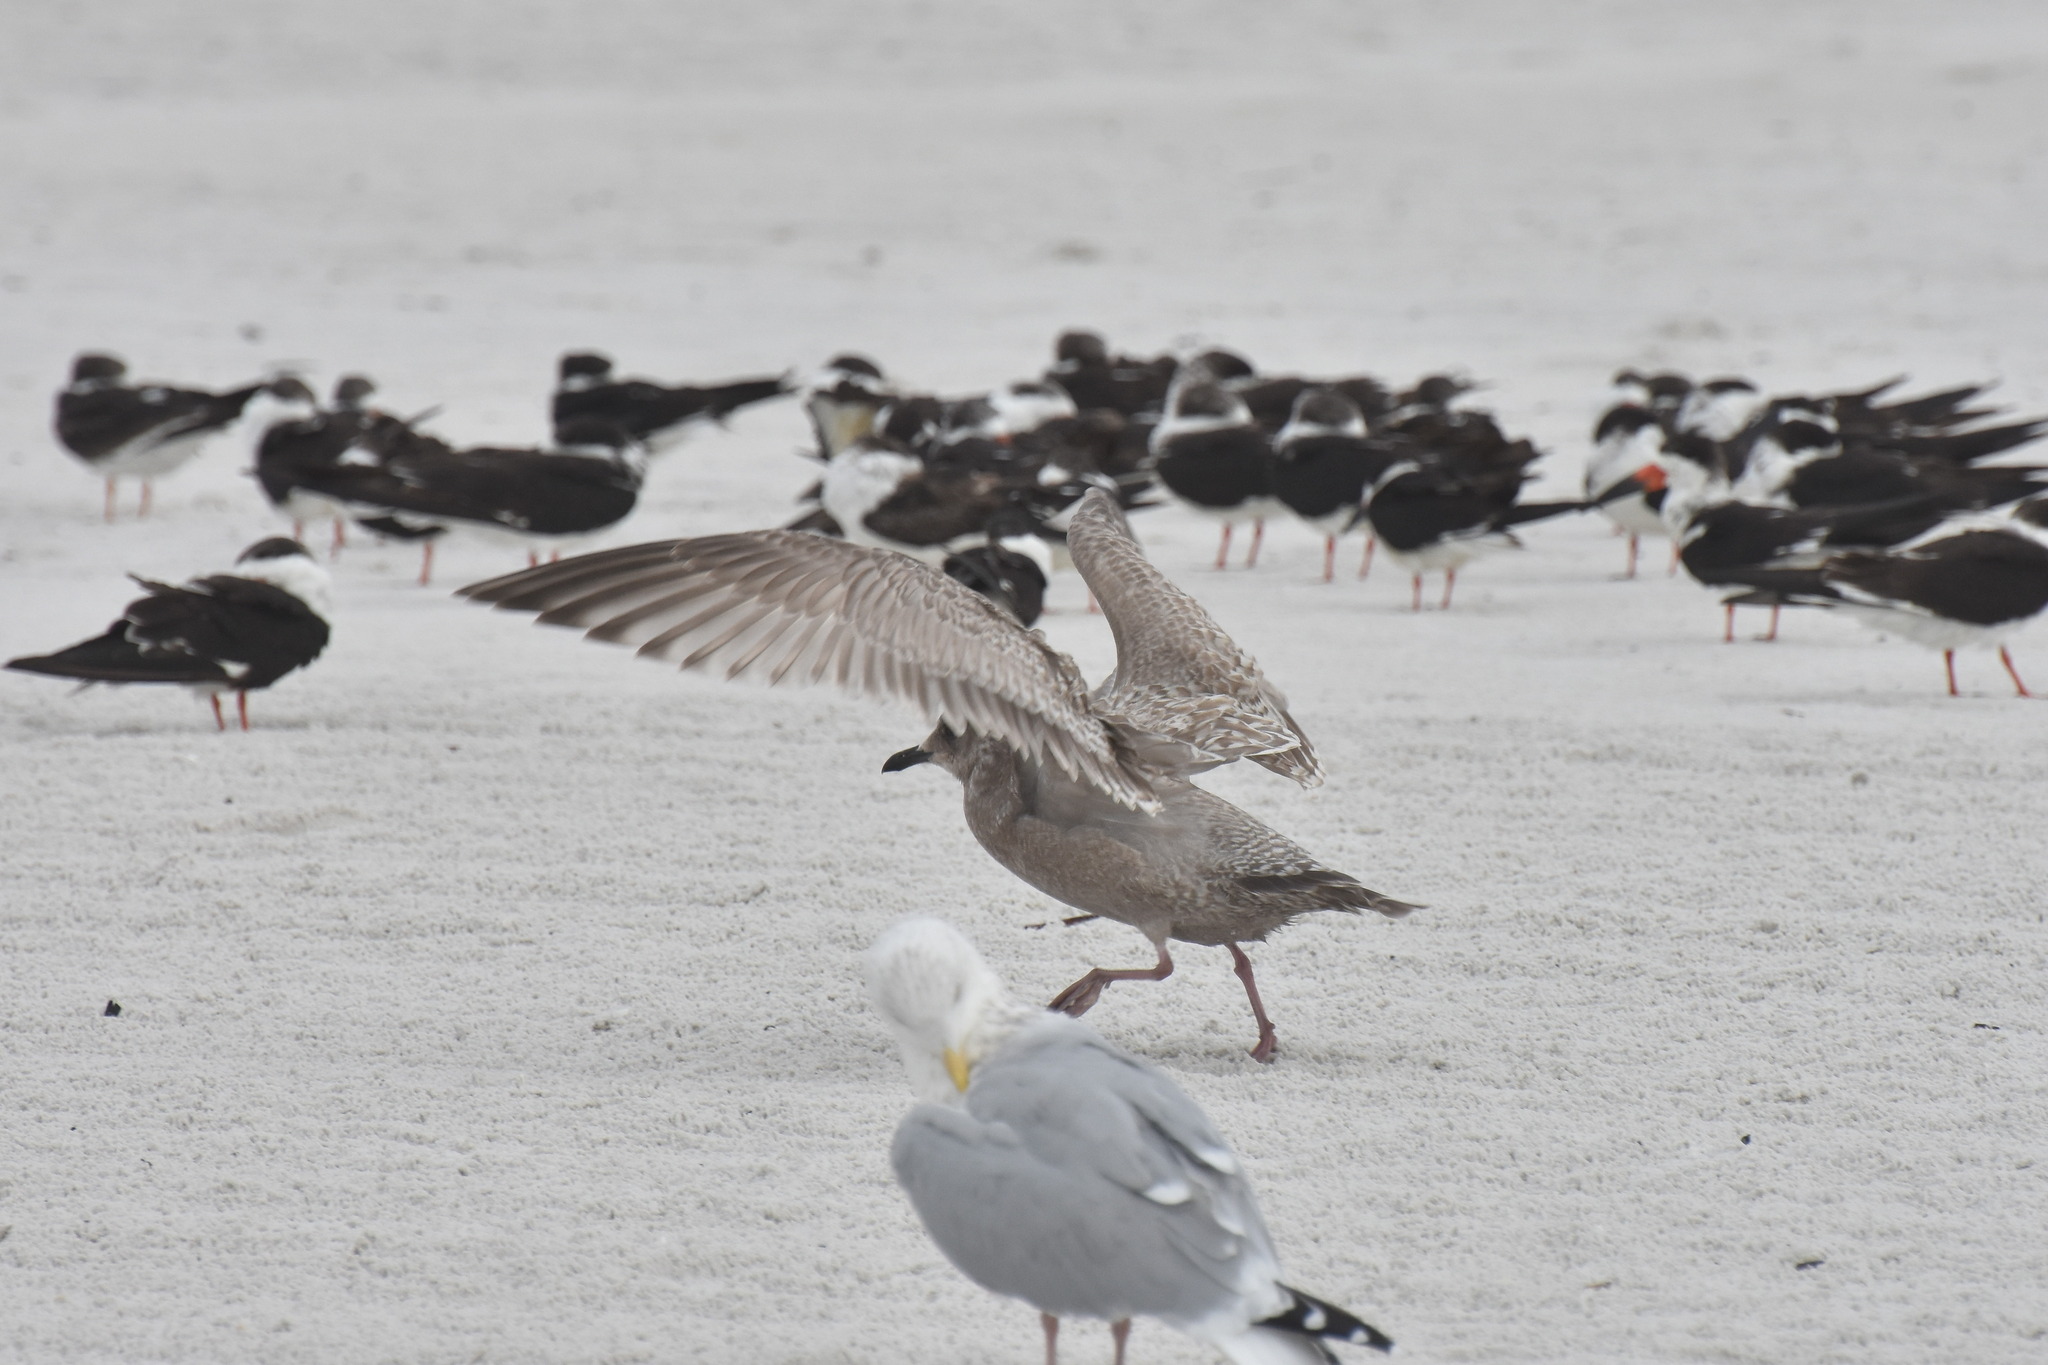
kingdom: Animalia
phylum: Chordata
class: Aves
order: Charadriiformes
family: Laridae
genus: Larus
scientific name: Larus glaucoides
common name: Iceland gull
